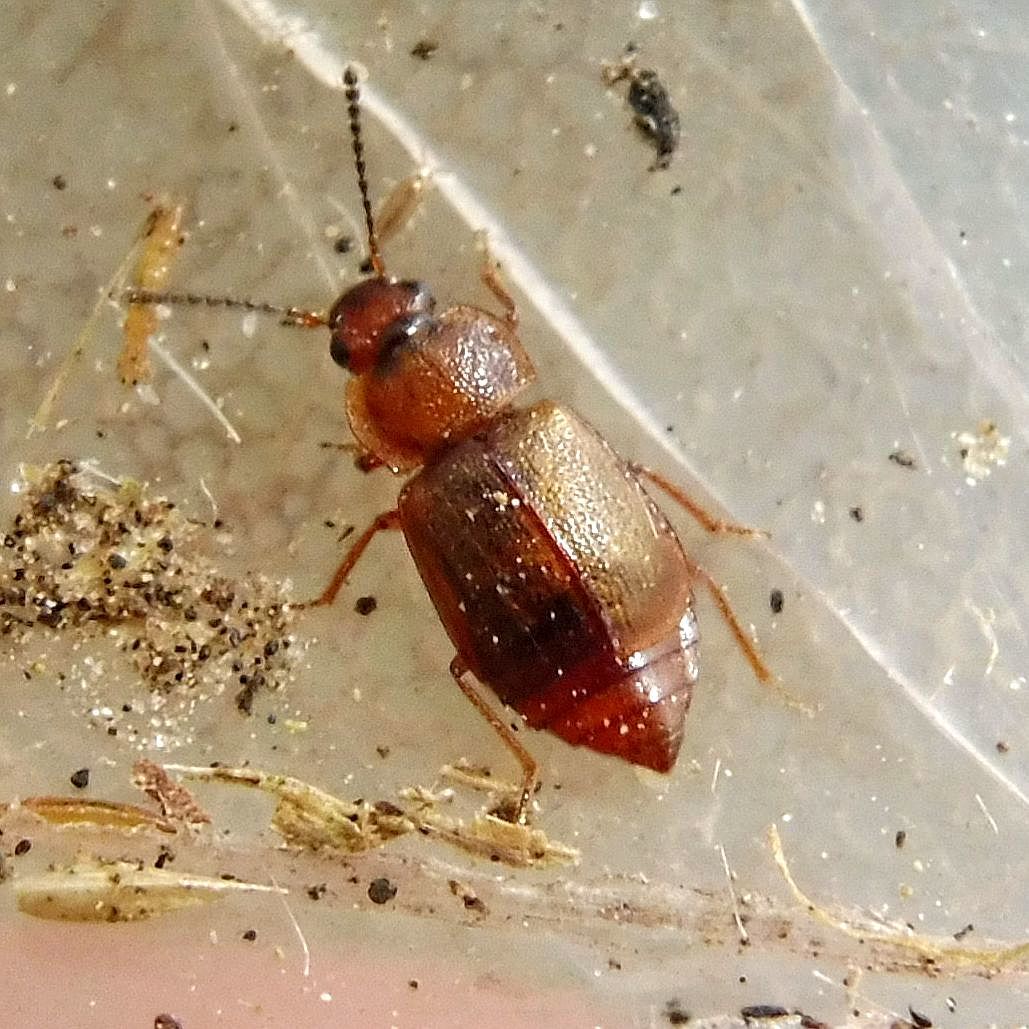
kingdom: Animalia
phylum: Arthropoda
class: Insecta
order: Coleoptera
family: Staphylinidae
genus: Anthobium
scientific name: Anthobium unicolor
